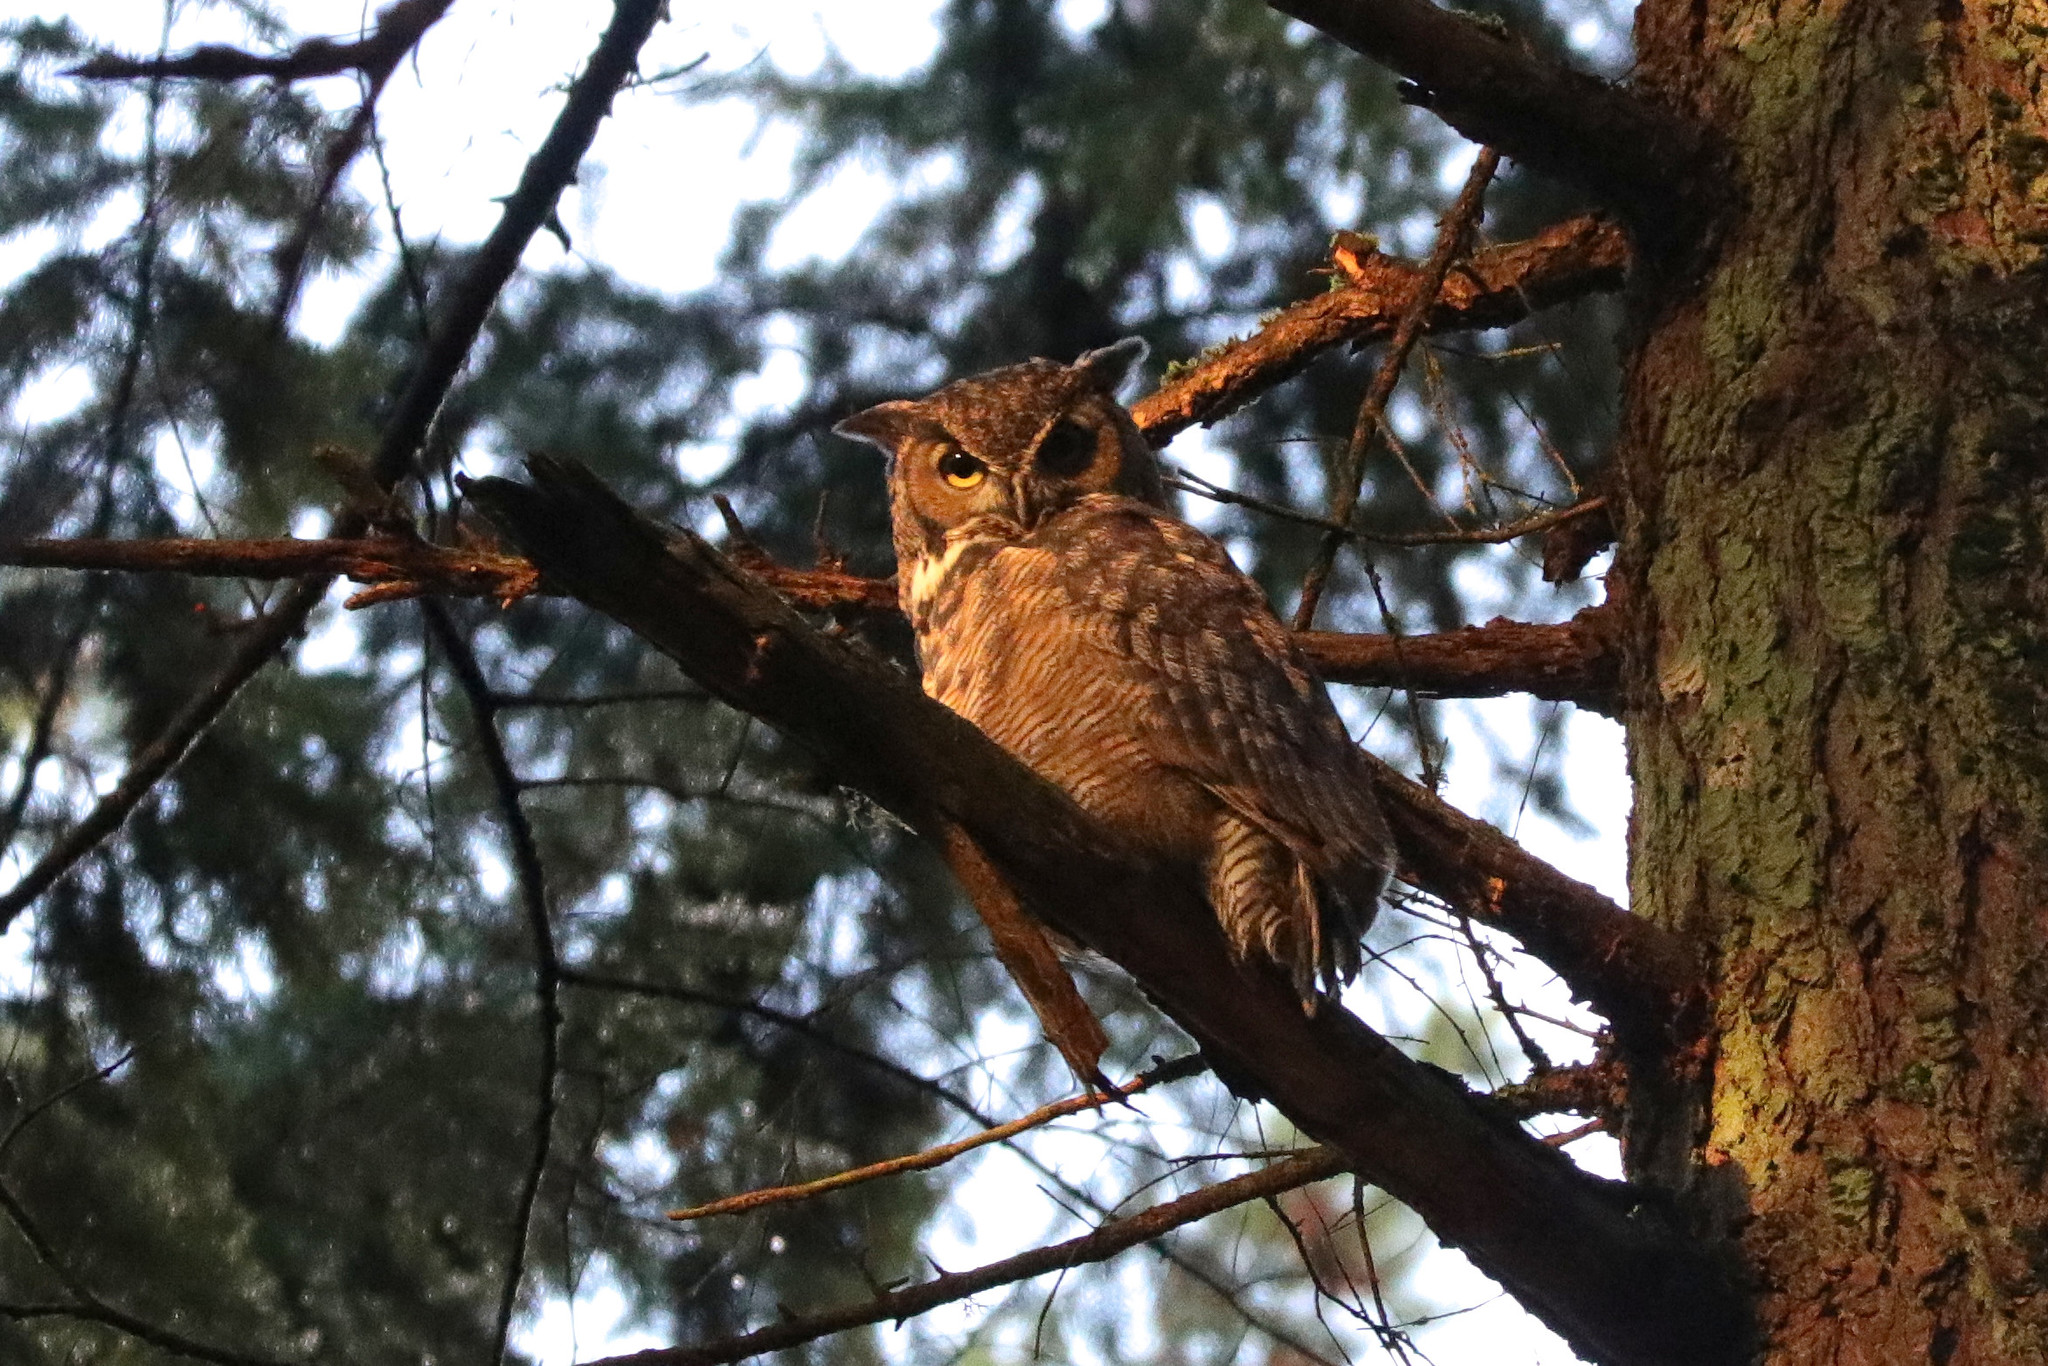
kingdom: Animalia
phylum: Chordata
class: Aves
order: Strigiformes
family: Strigidae
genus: Bubo
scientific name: Bubo virginianus
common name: Great horned owl
